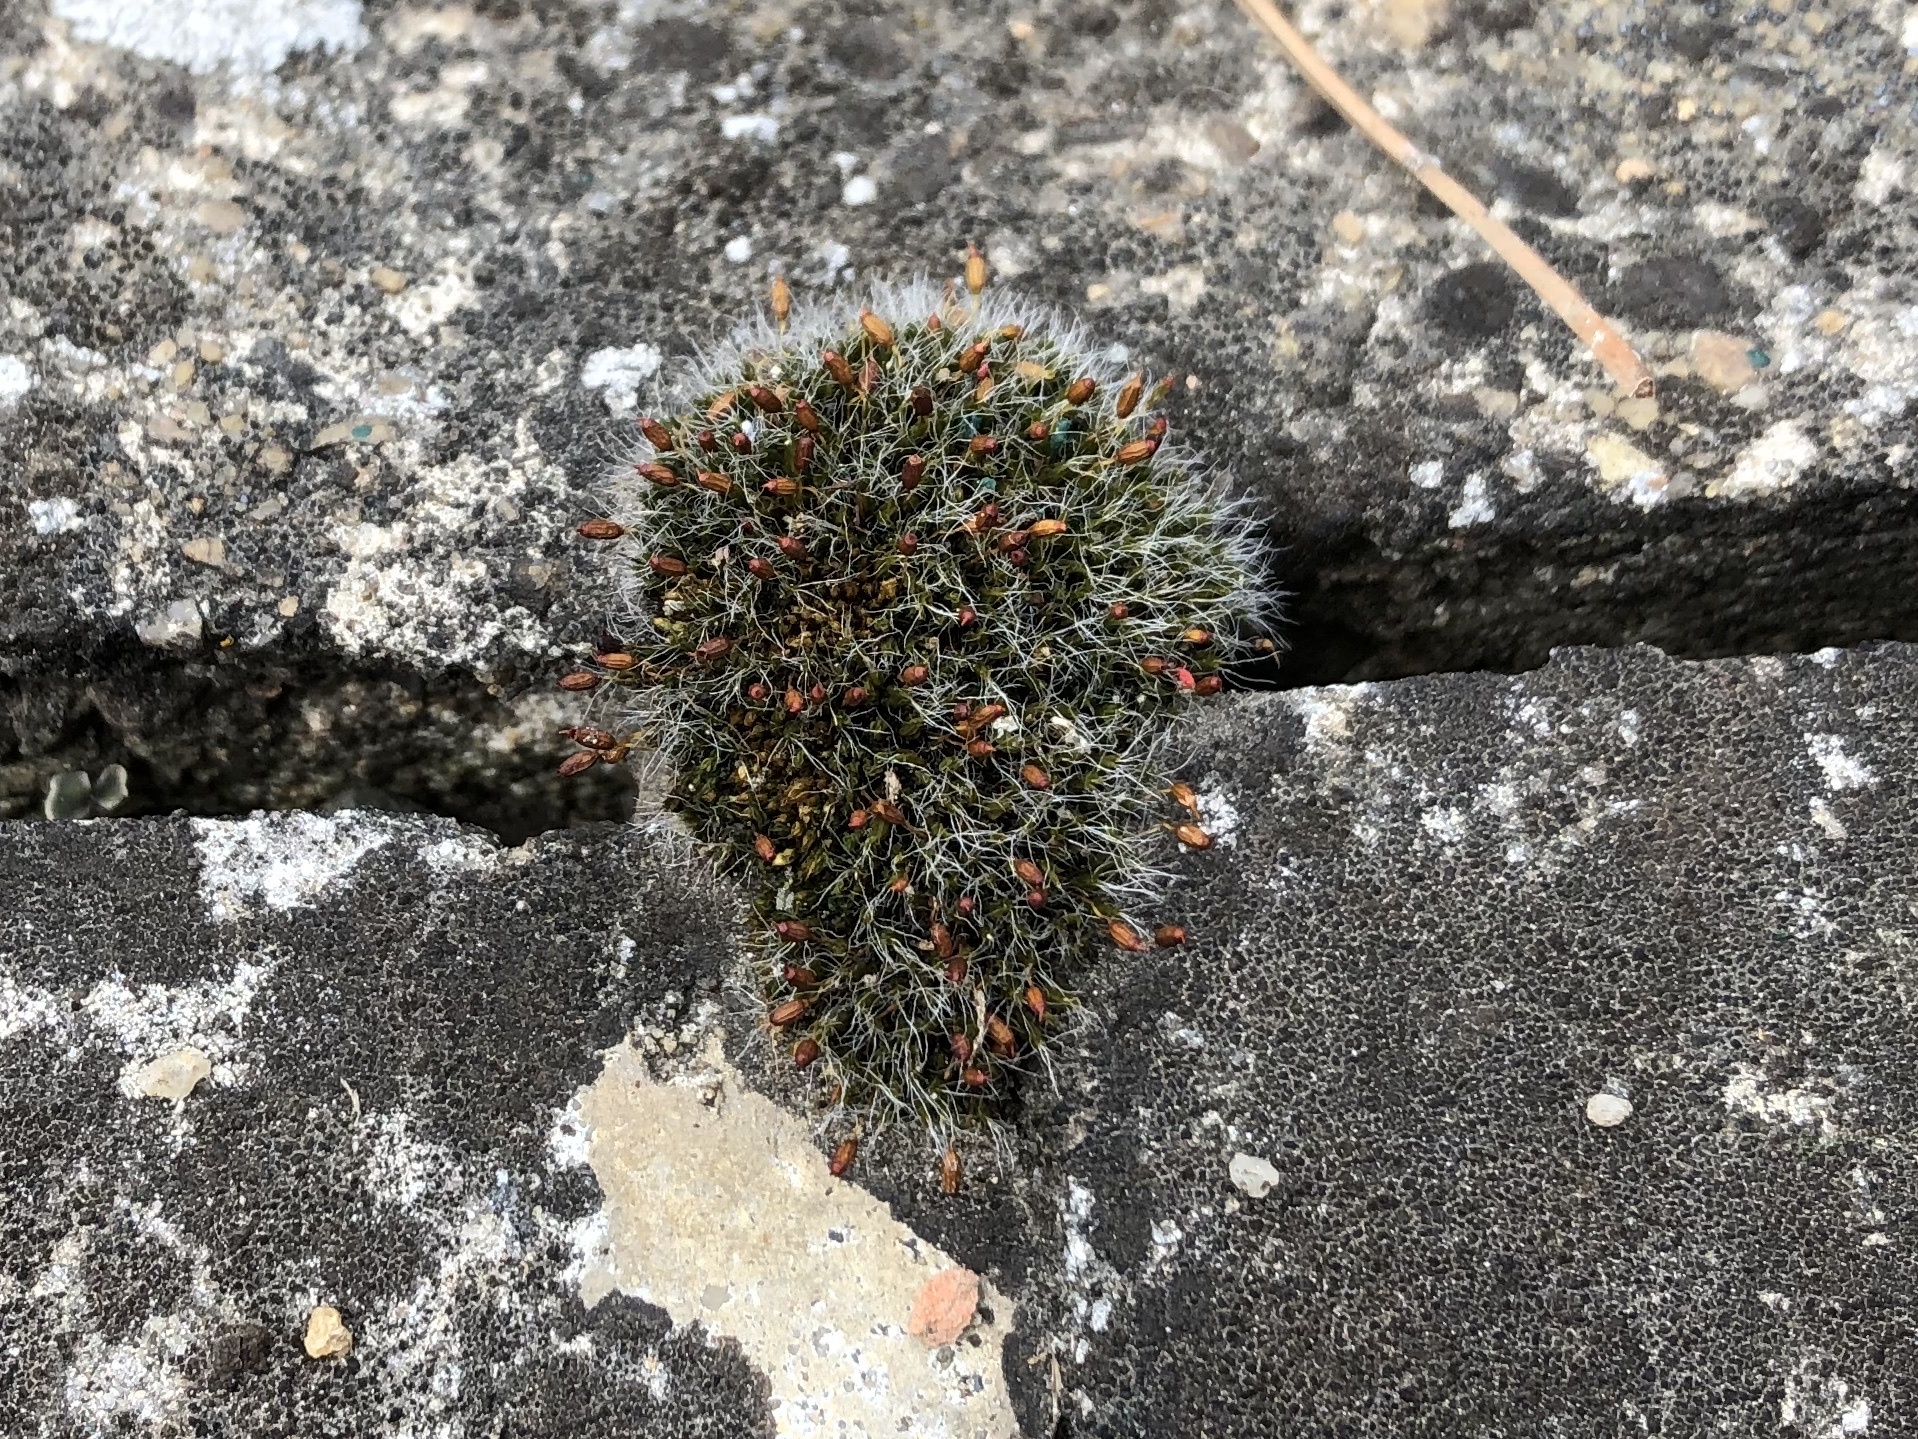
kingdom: Plantae
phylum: Bryophyta
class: Bryopsida
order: Grimmiales
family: Grimmiaceae
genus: Grimmia
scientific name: Grimmia pulvinata
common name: Grey-cushioned grimmia
